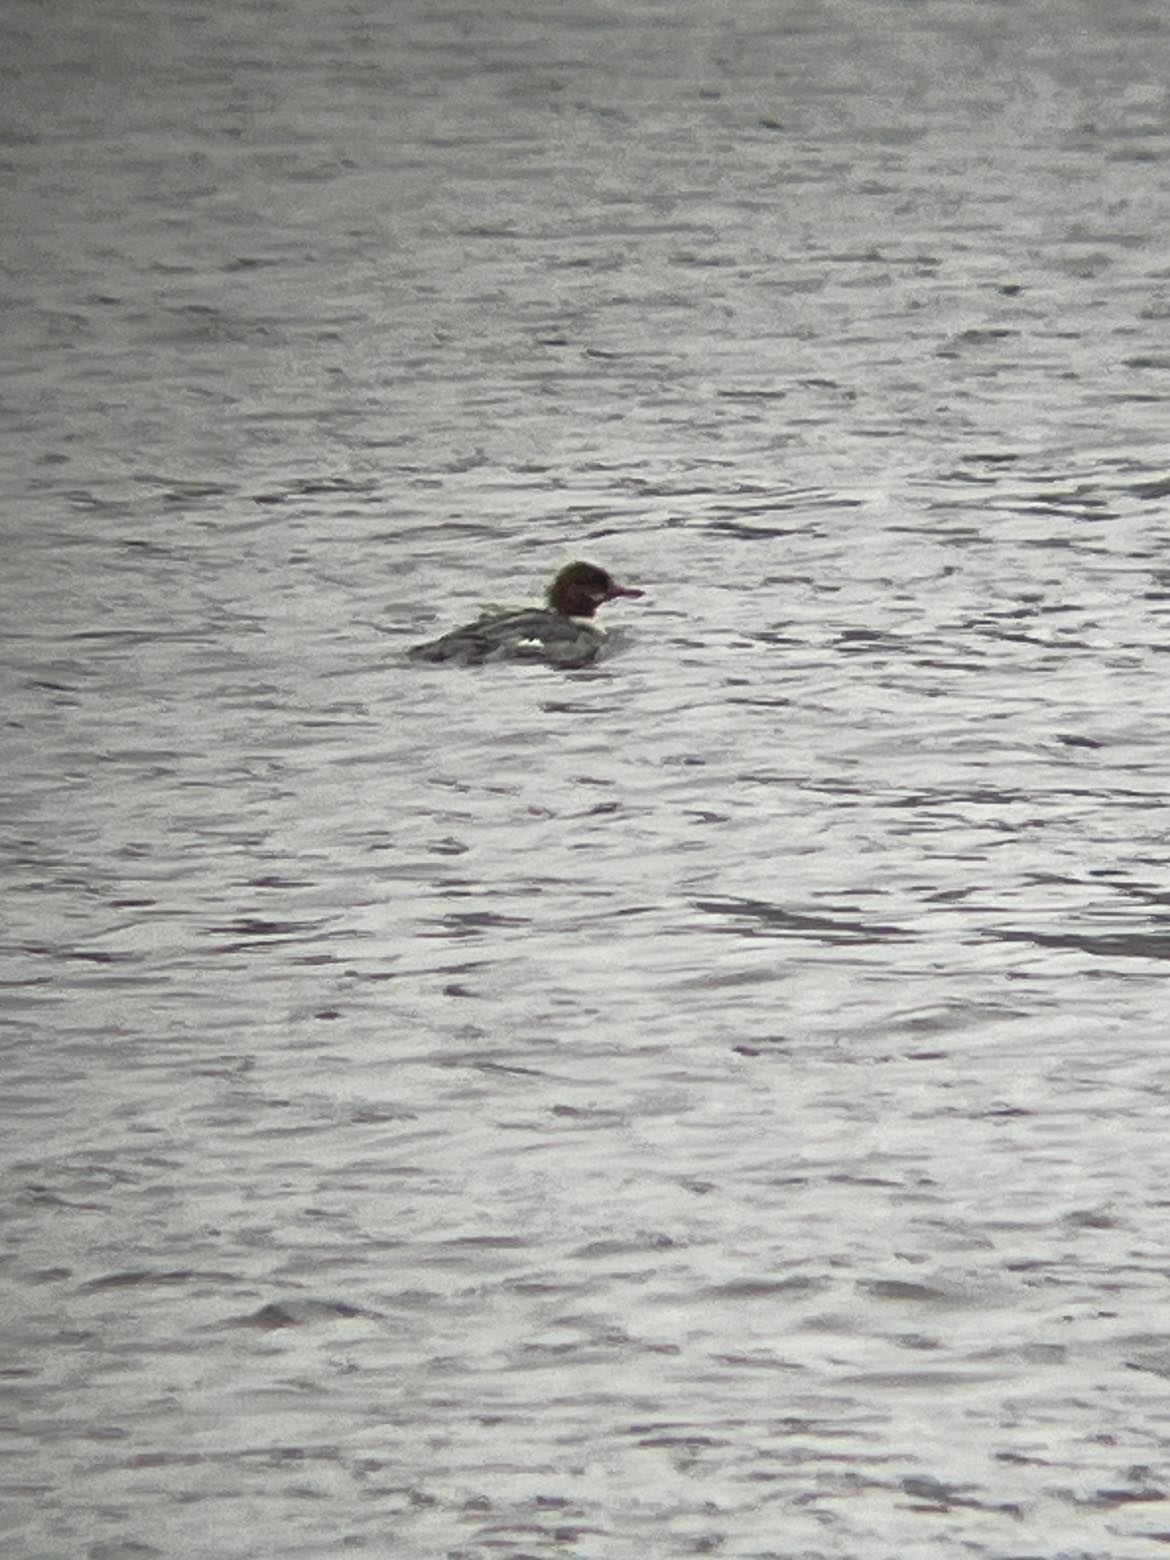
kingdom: Animalia
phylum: Chordata
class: Aves
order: Anseriformes
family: Anatidae
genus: Mergus
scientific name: Mergus merganser
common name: Common merganser
